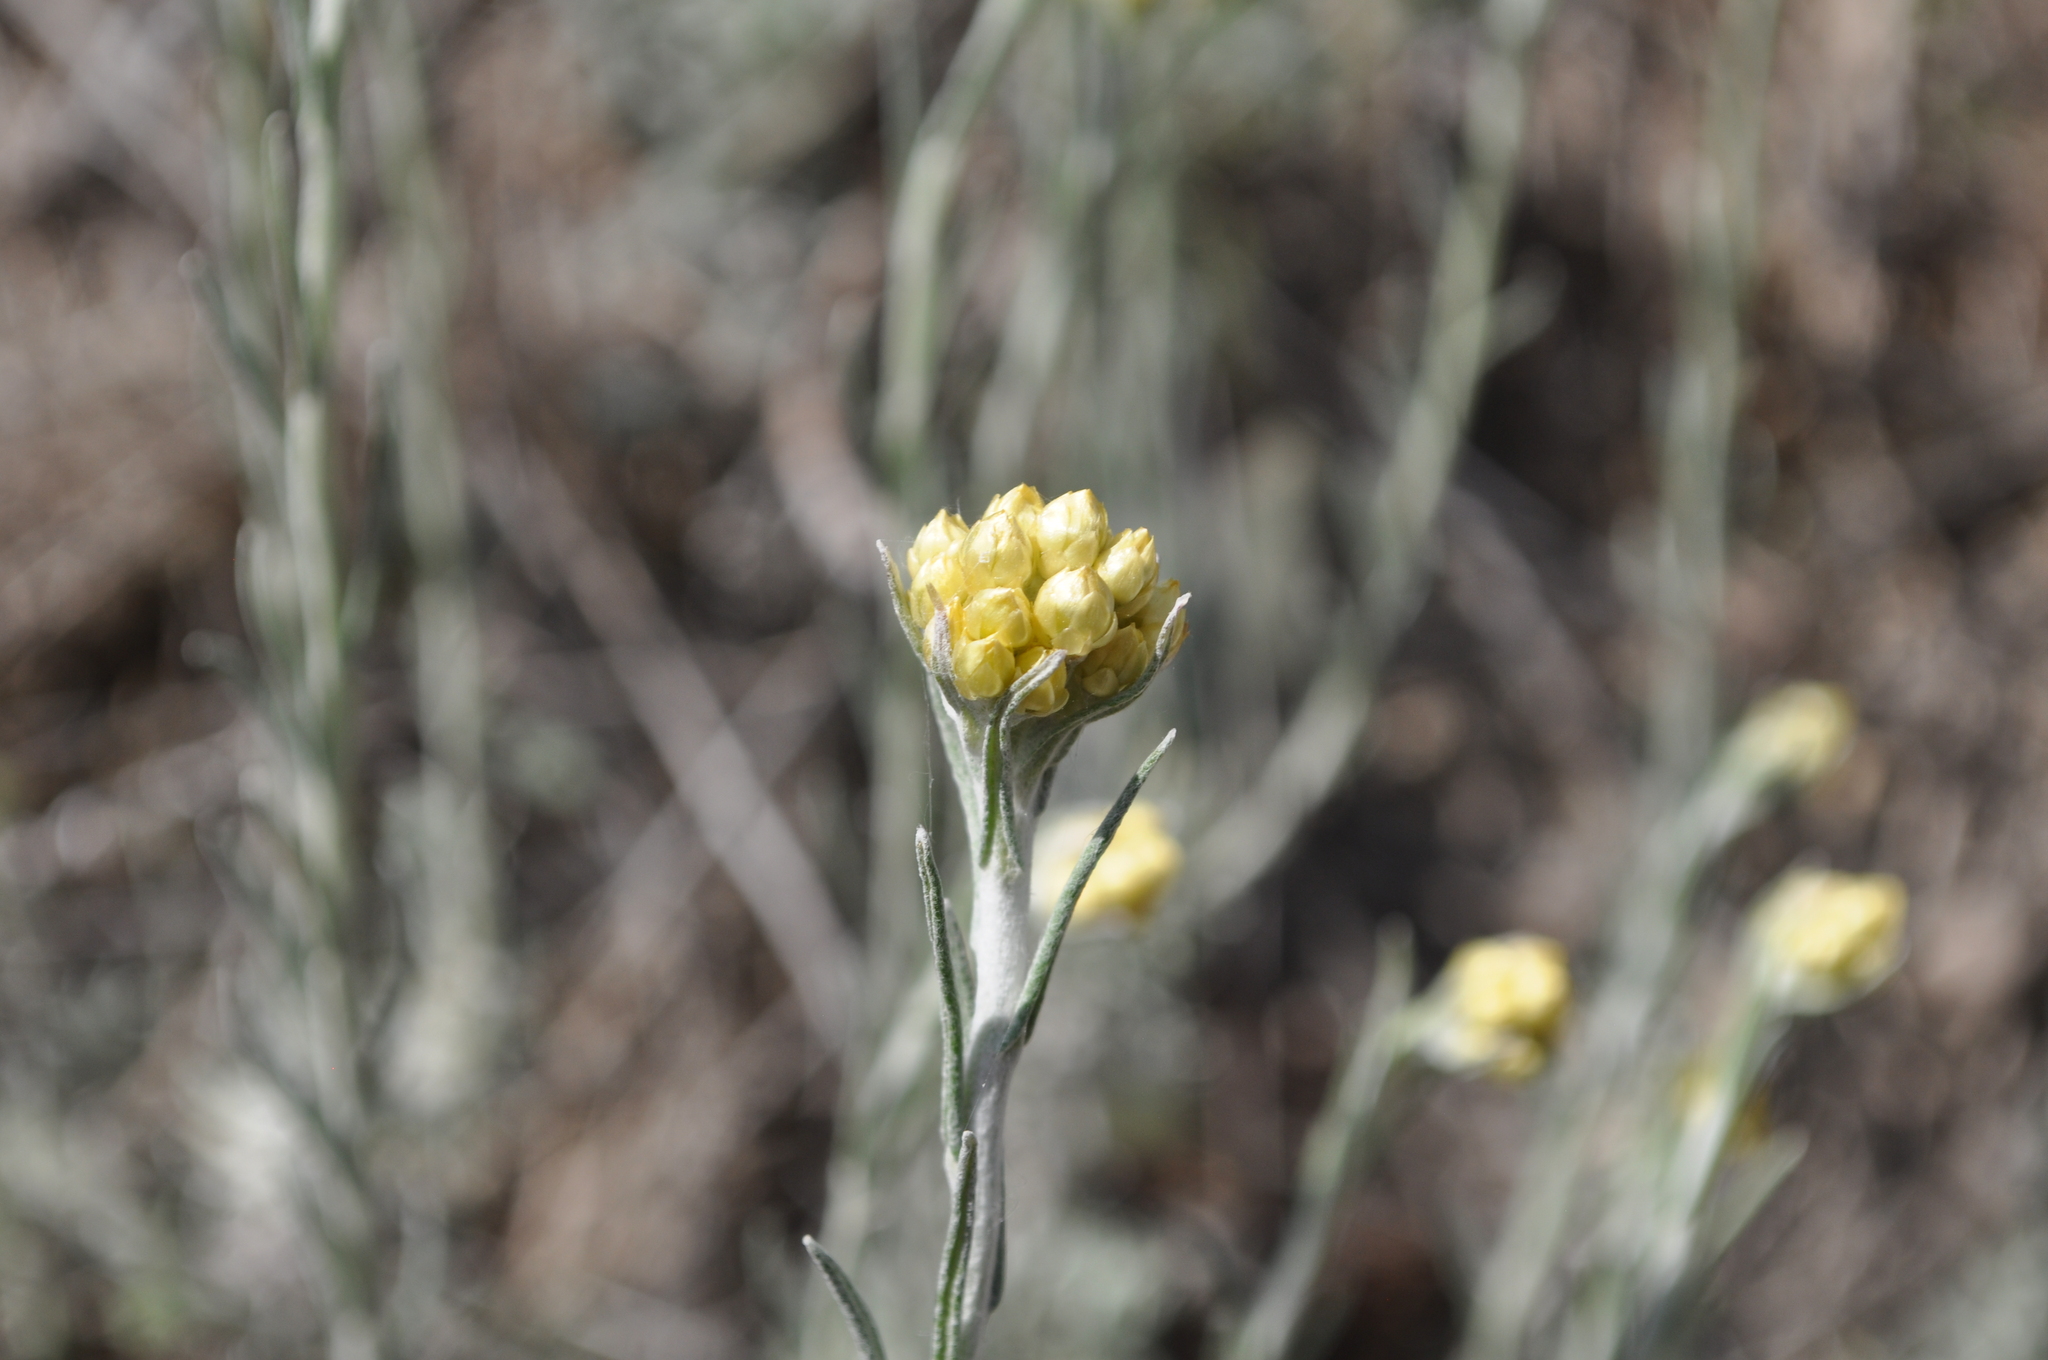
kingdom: Plantae
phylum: Tracheophyta
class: Magnoliopsida
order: Asterales
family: Asteraceae
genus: Helichrysum
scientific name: Helichrysum stoechas
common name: Goldilocks
